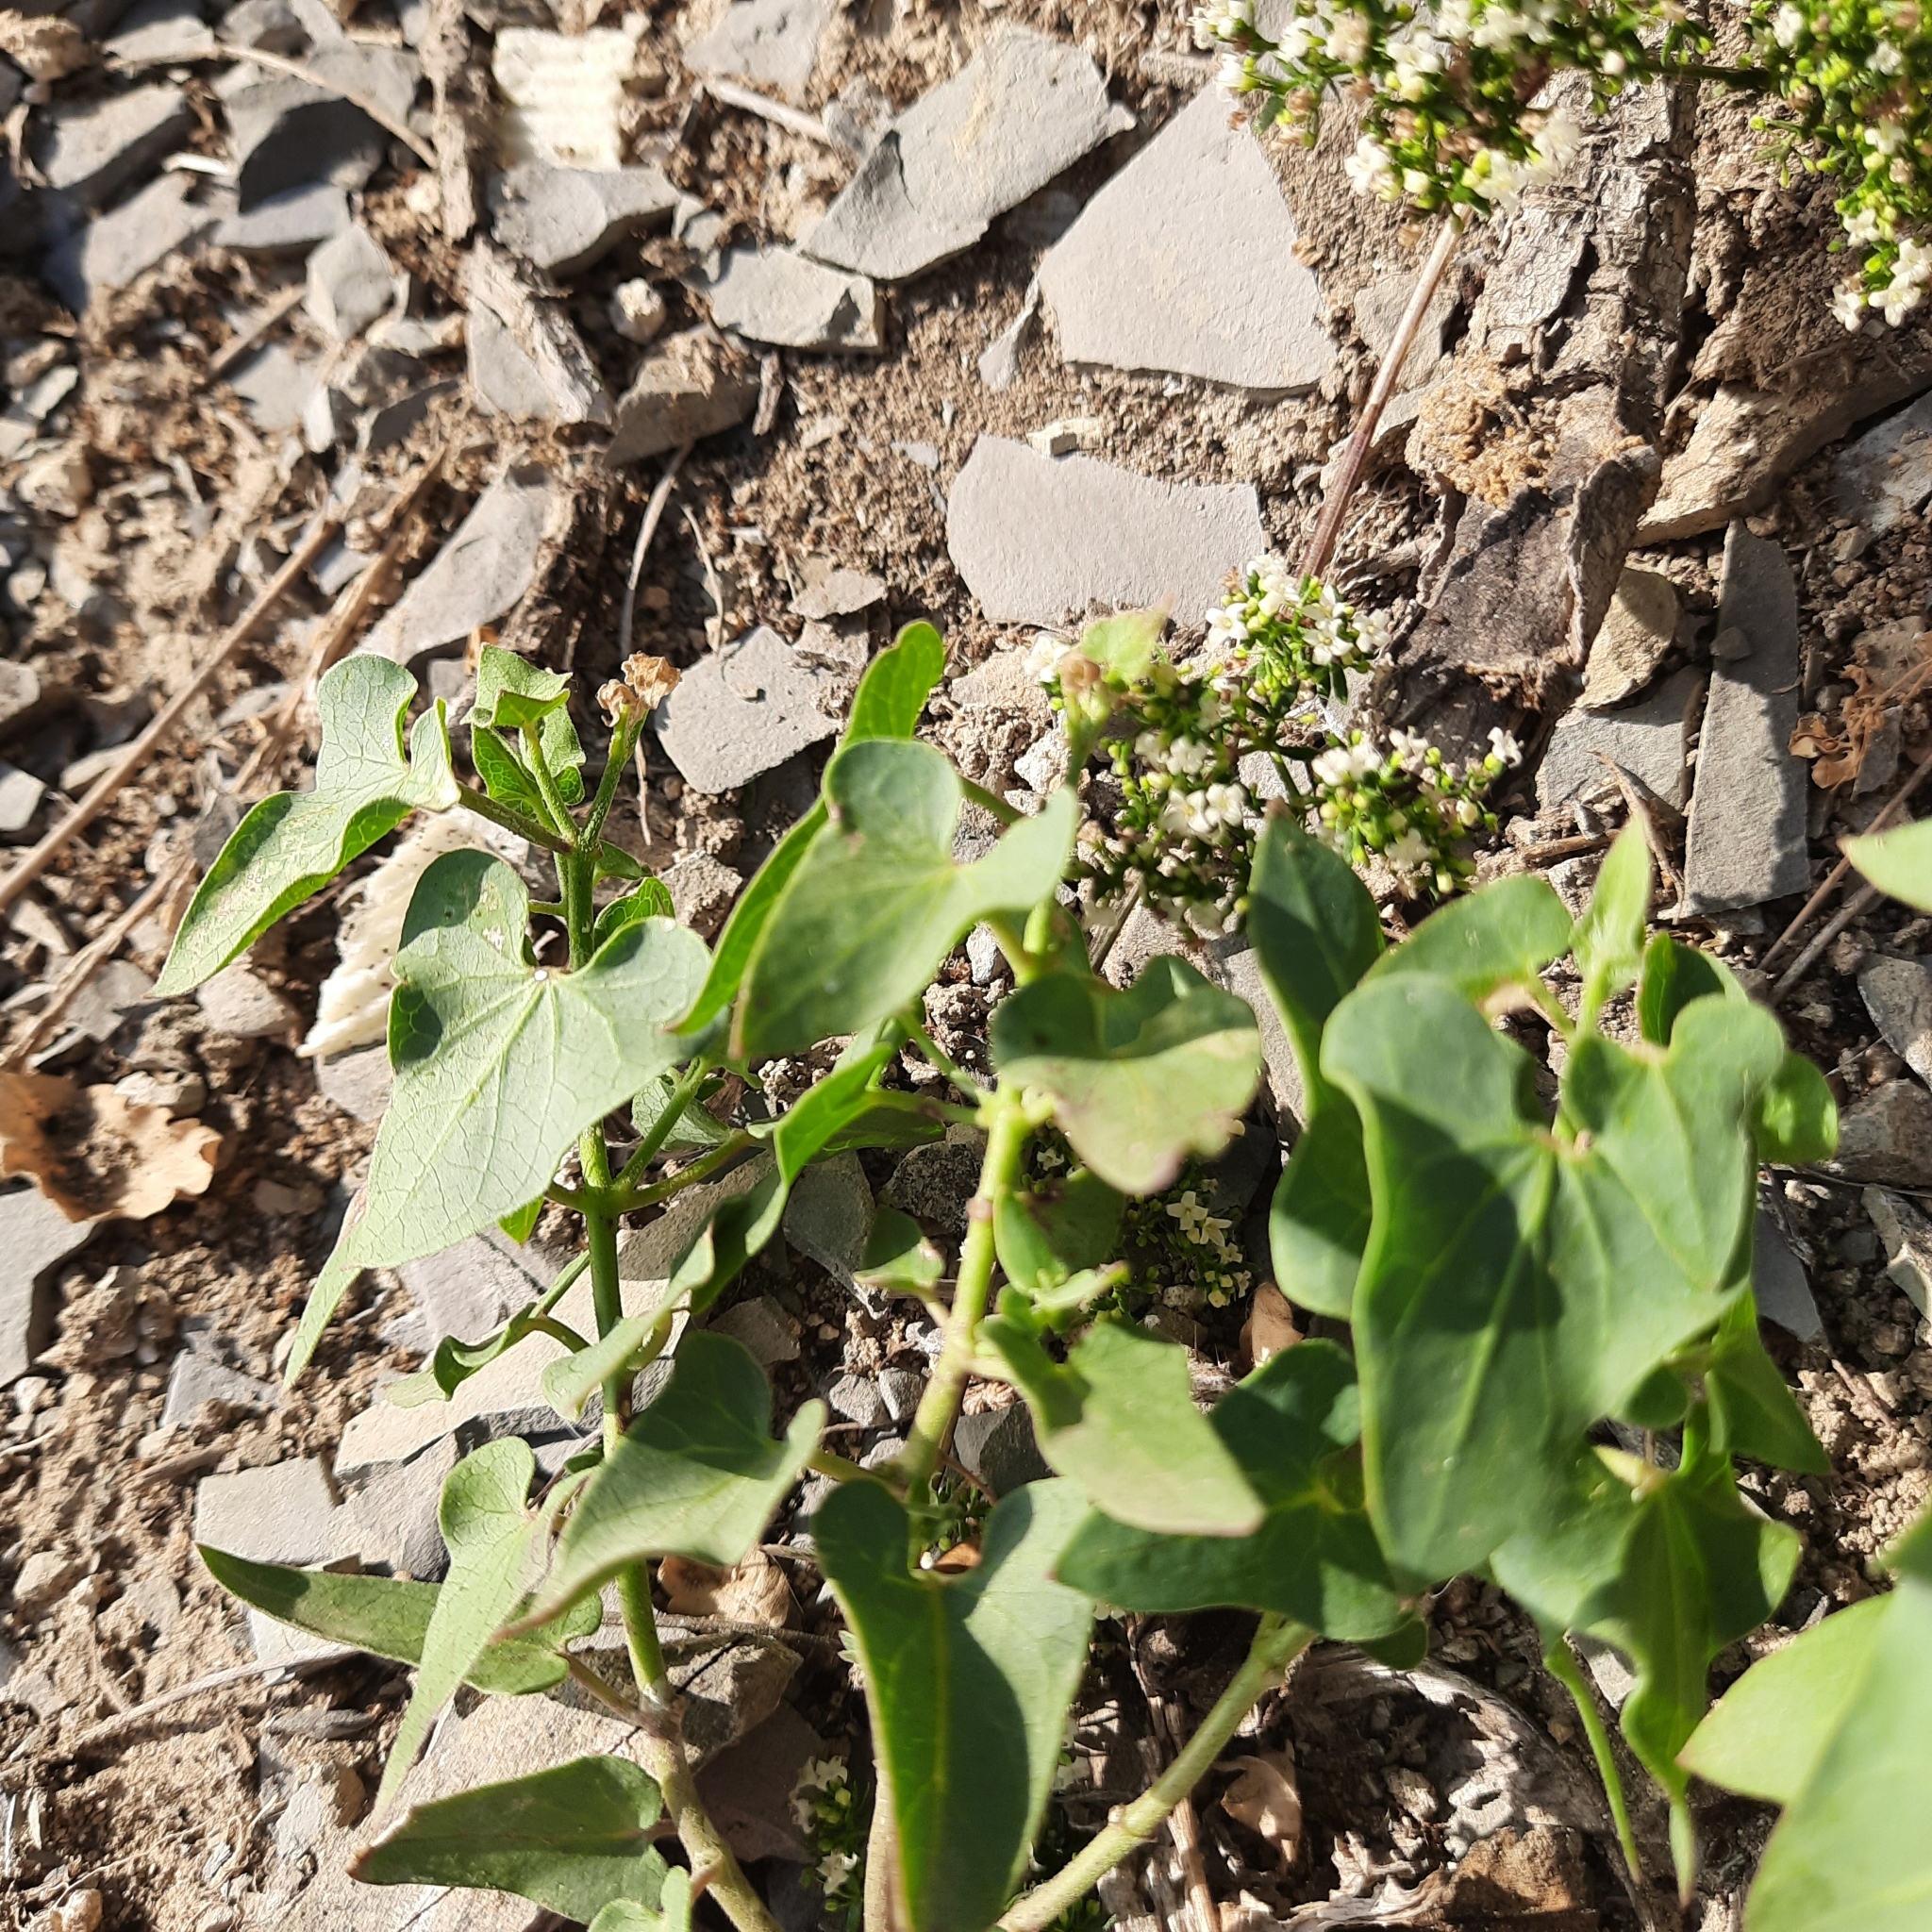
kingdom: Plantae
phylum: Tracheophyta
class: Magnoliopsida
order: Gentianales
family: Apocynaceae
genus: Cynanchum
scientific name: Cynanchum acutum
